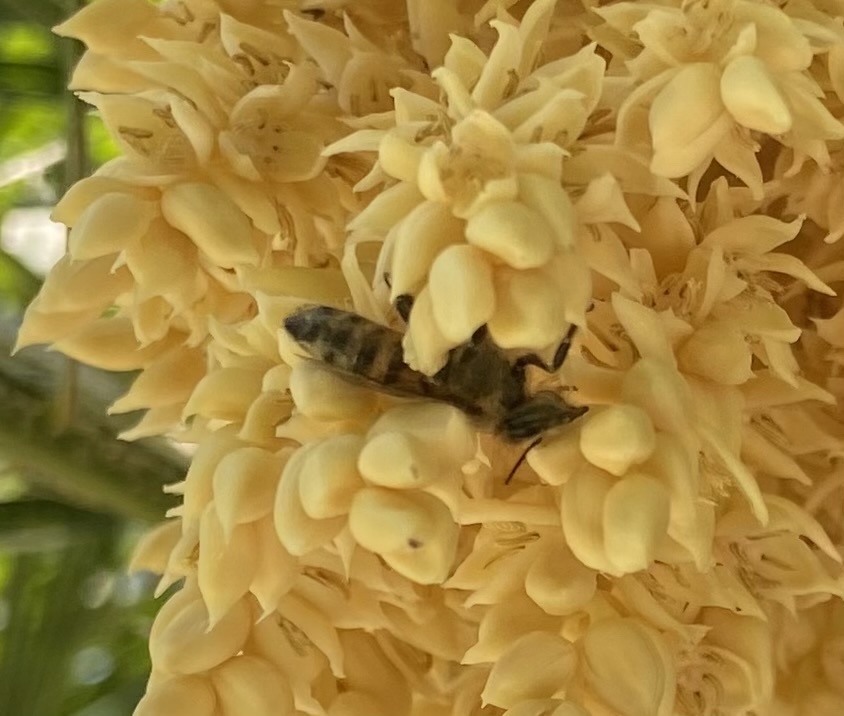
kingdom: Animalia
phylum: Arthropoda
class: Insecta
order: Hymenoptera
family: Apidae
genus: Apis
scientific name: Apis mellifera
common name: Honey bee
